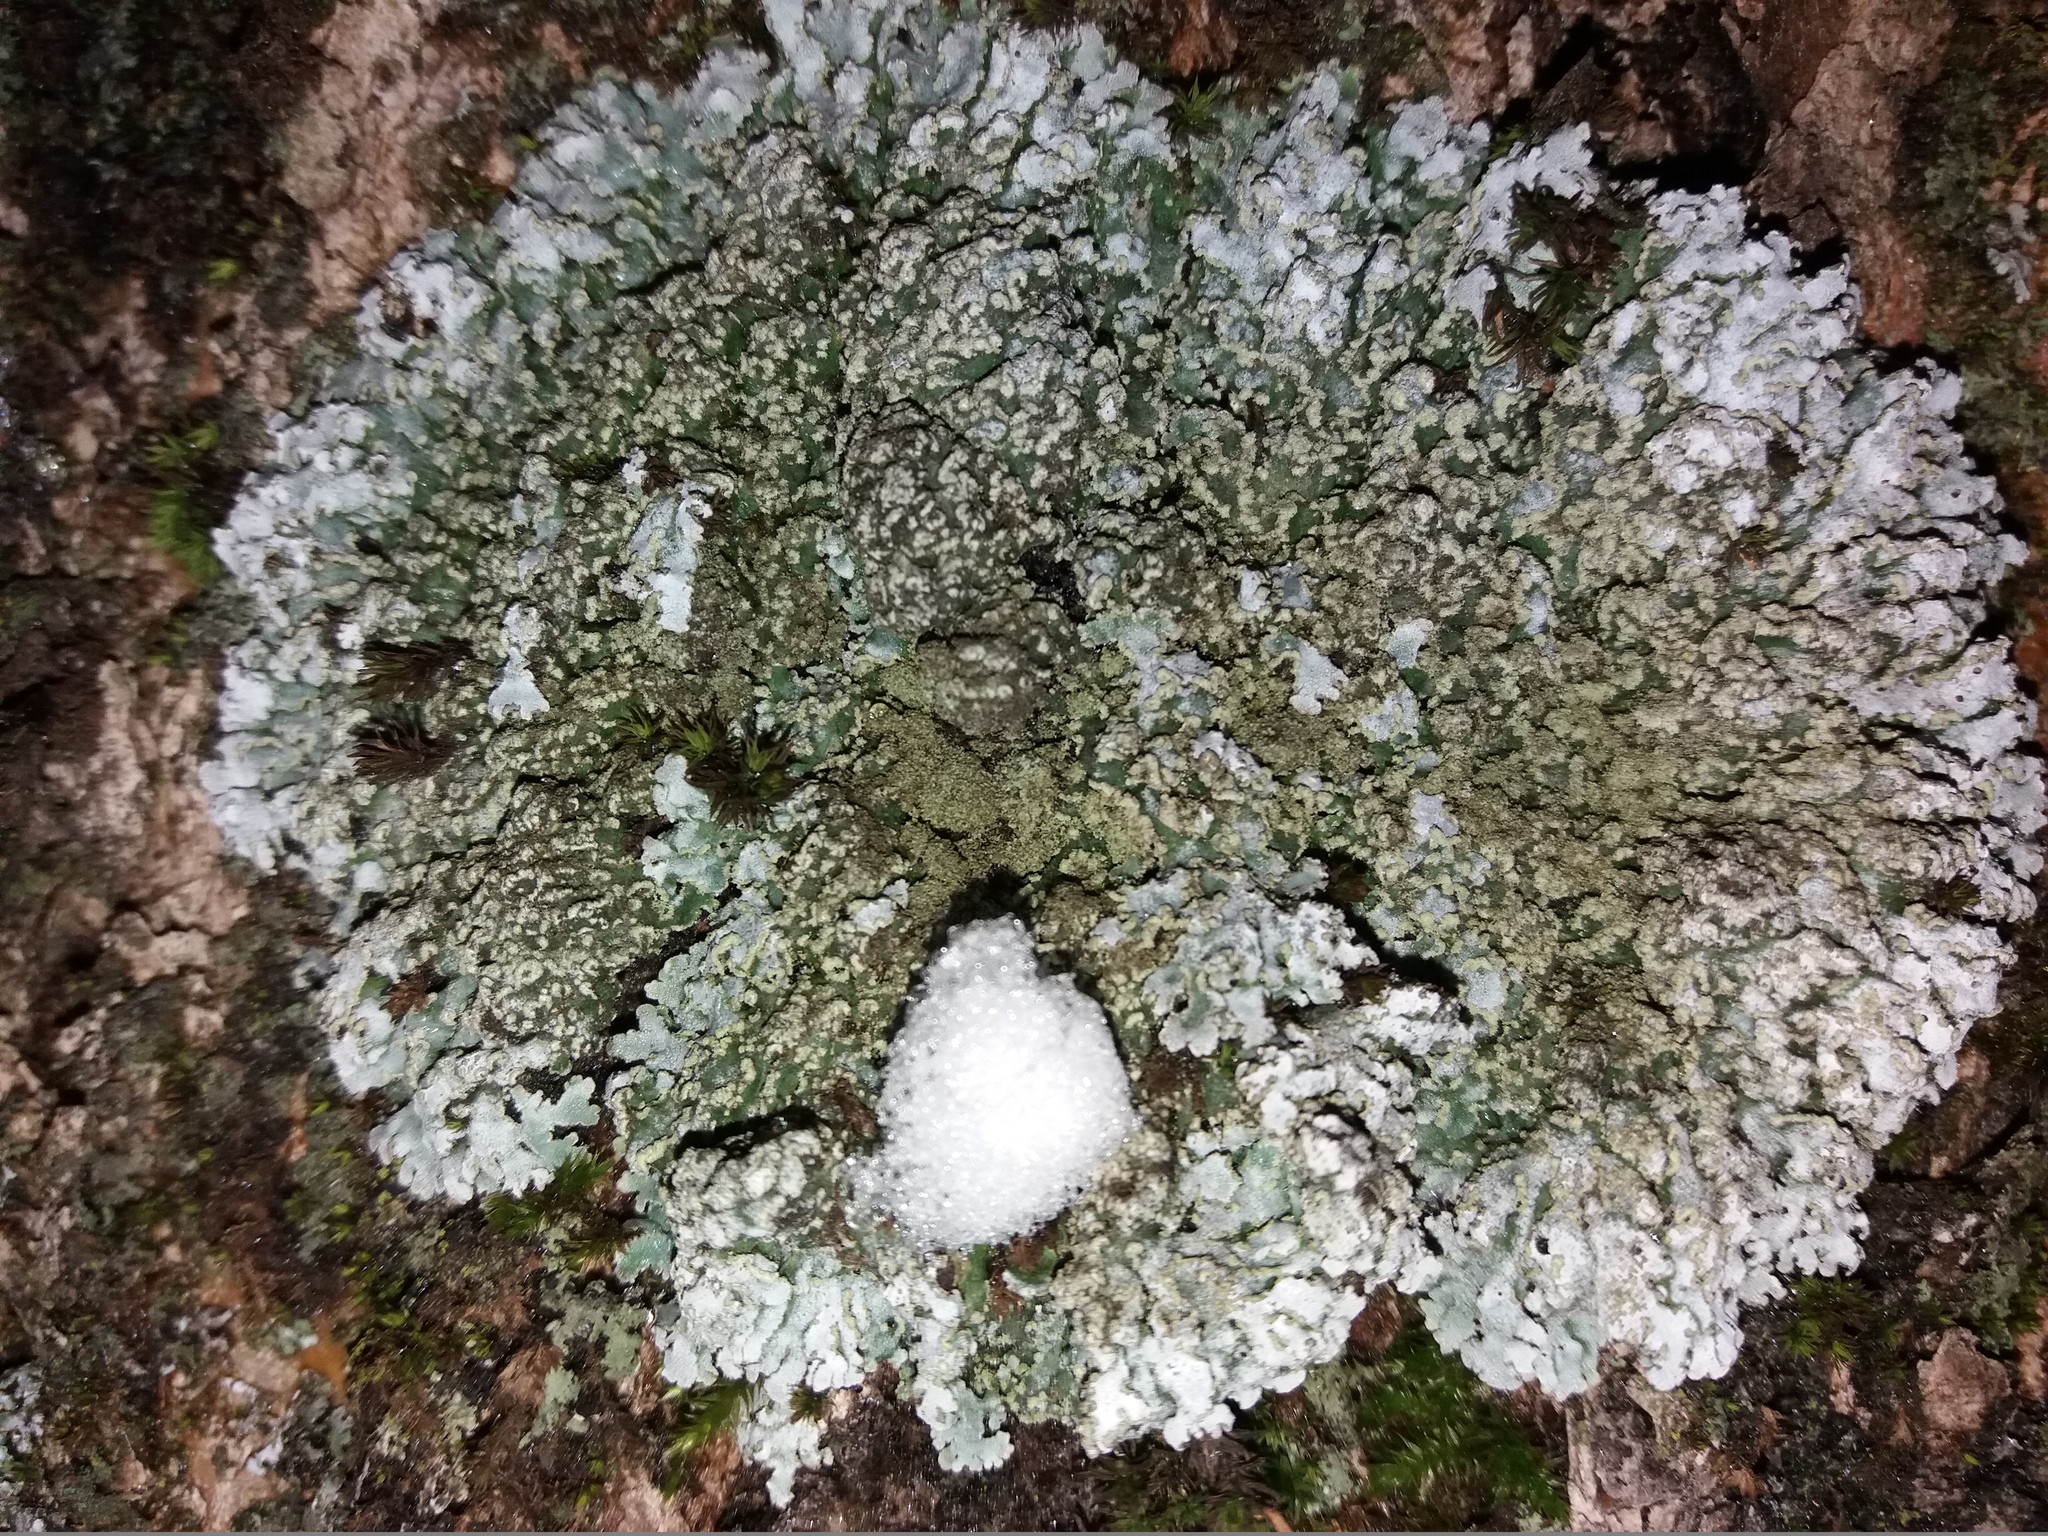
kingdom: Fungi
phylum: Ascomycota
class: Lecanoromycetes
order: Caliciales
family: Physciaceae
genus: Physconia
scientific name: Physconia enteroxantha
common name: Yellow-edged frost lichen
